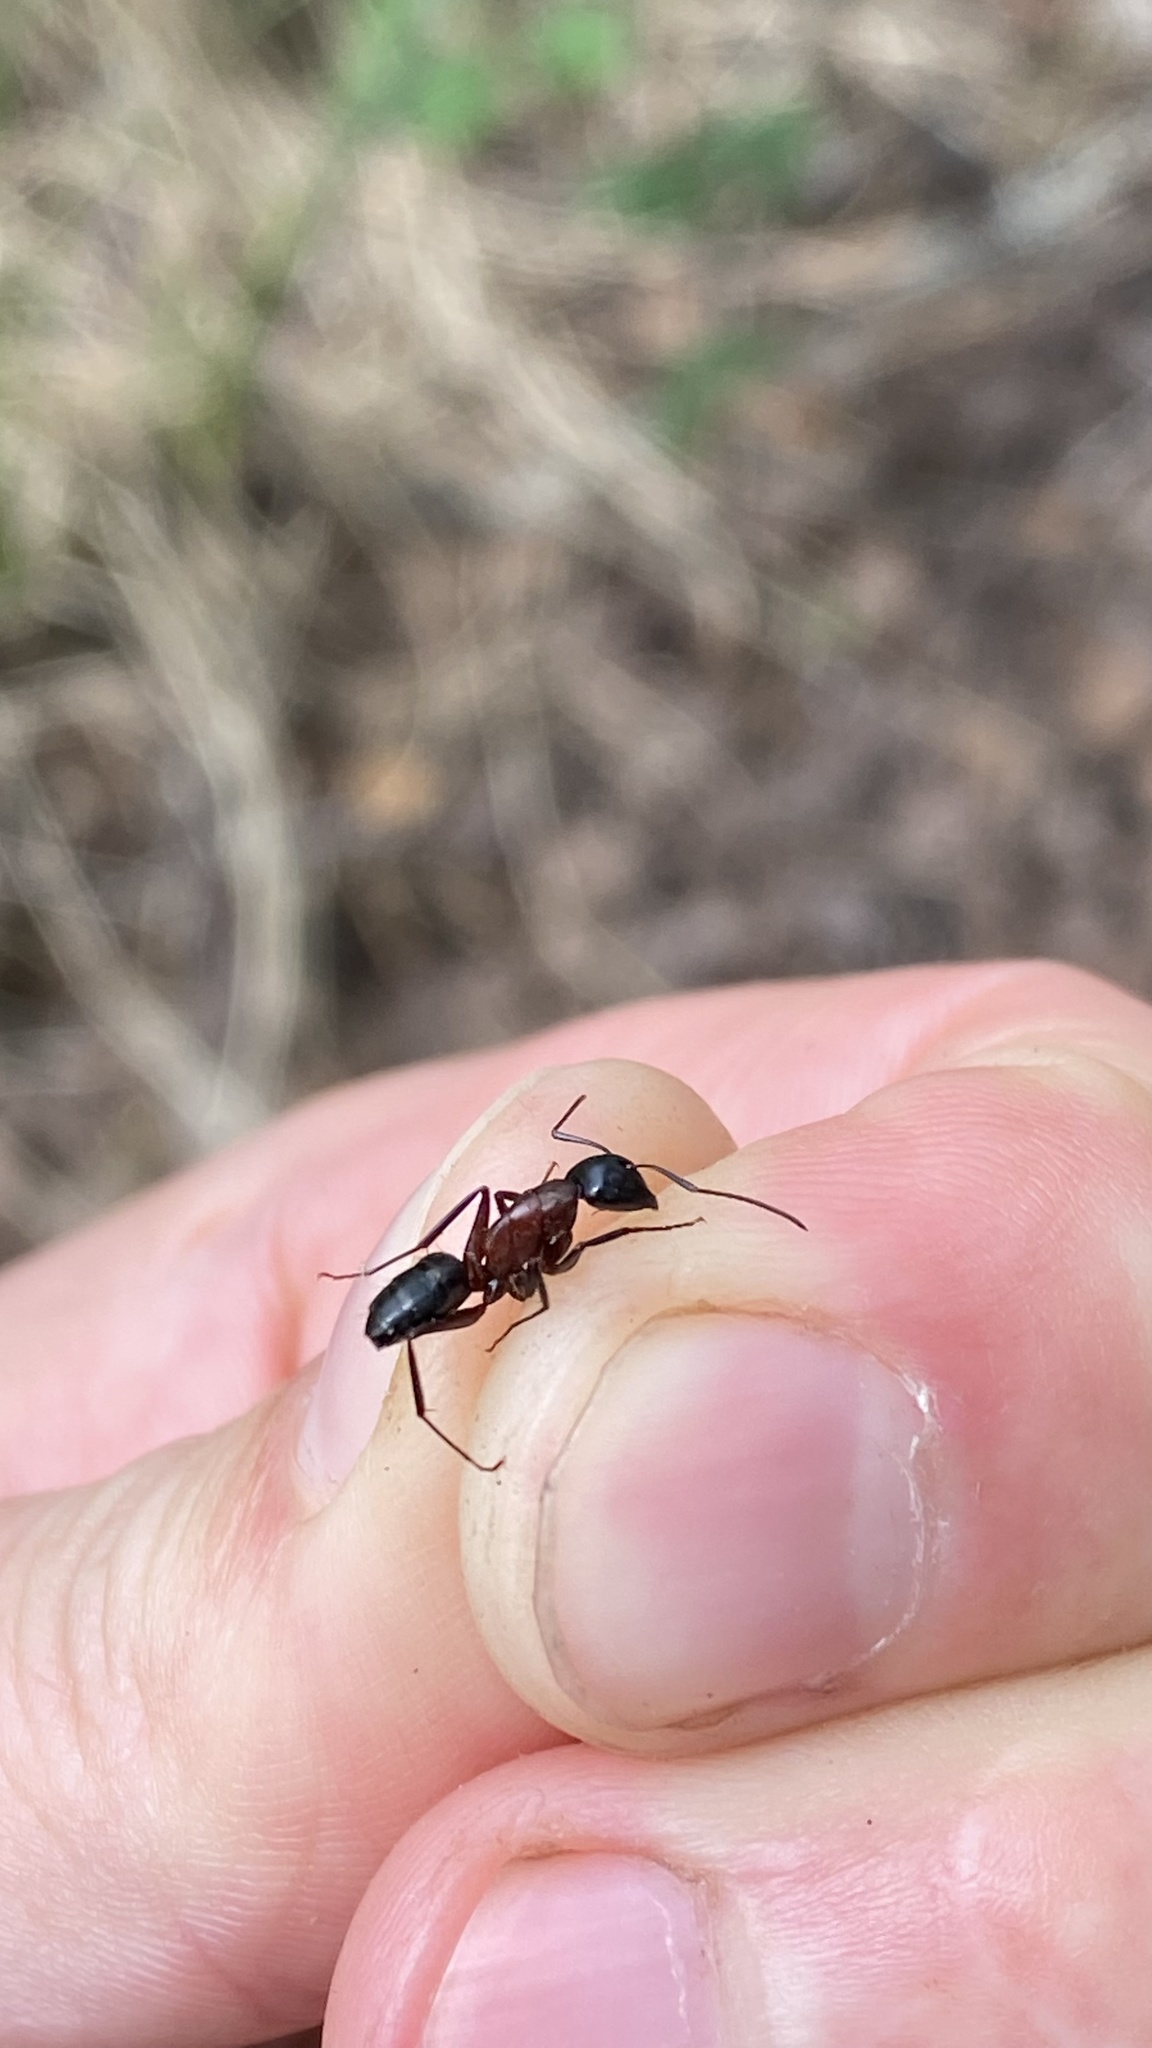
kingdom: Animalia
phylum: Arthropoda
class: Insecta
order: Hymenoptera
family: Formicidae
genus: Camponotus
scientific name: Camponotus herculeanus
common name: Hercules ant
